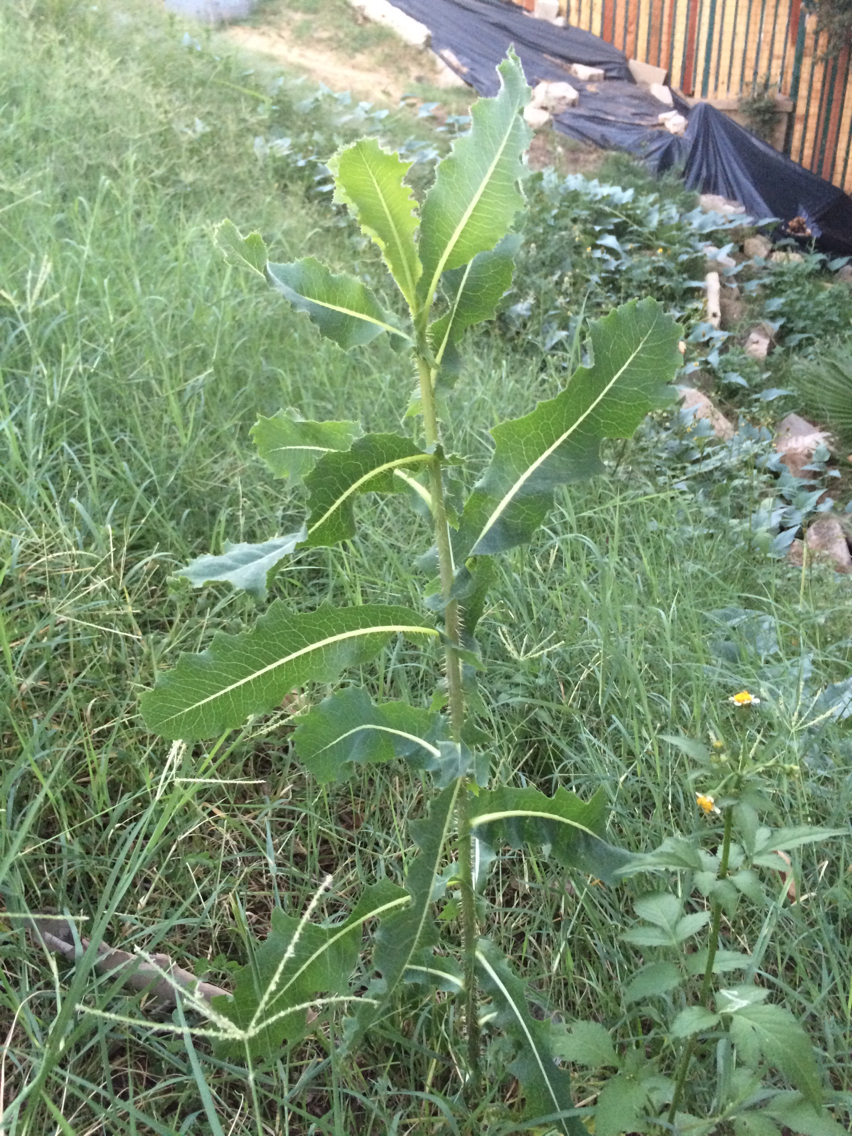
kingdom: Plantae
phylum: Tracheophyta
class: Magnoliopsida
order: Asterales
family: Asteraceae
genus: Lactuca
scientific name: Lactuca serriola
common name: Prickly lettuce
